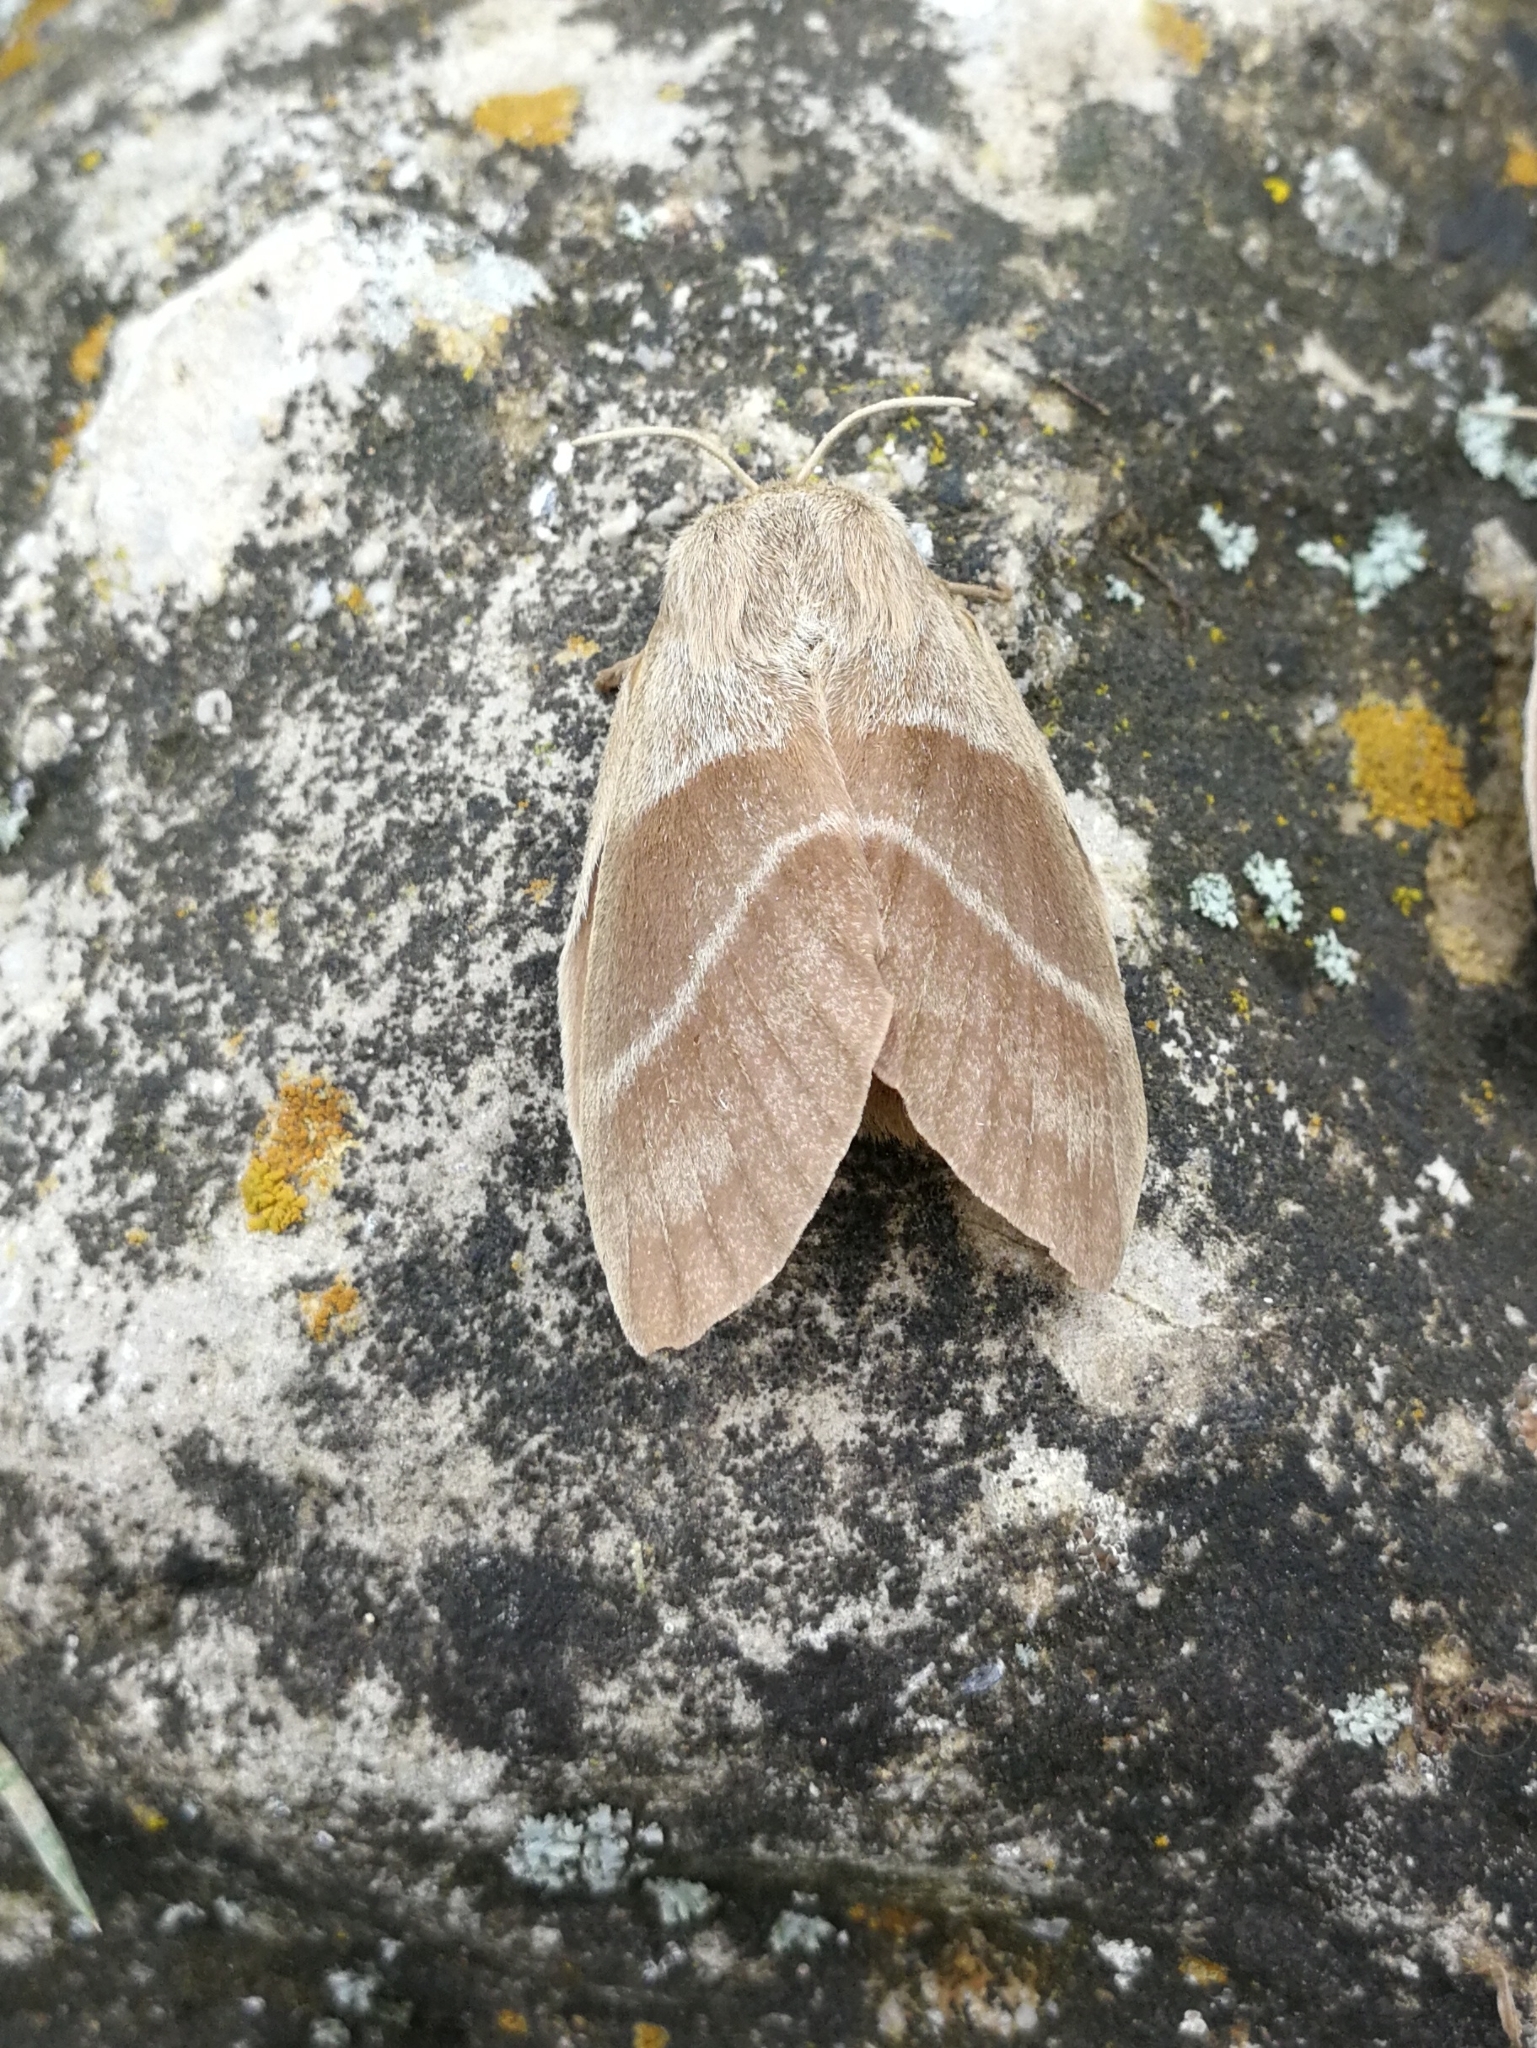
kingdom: Animalia
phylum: Arthropoda
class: Insecta
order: Lepidoptera
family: Lasiocampidae
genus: Macrothylacia
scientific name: Macrothylacia rubi
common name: Fox moth
